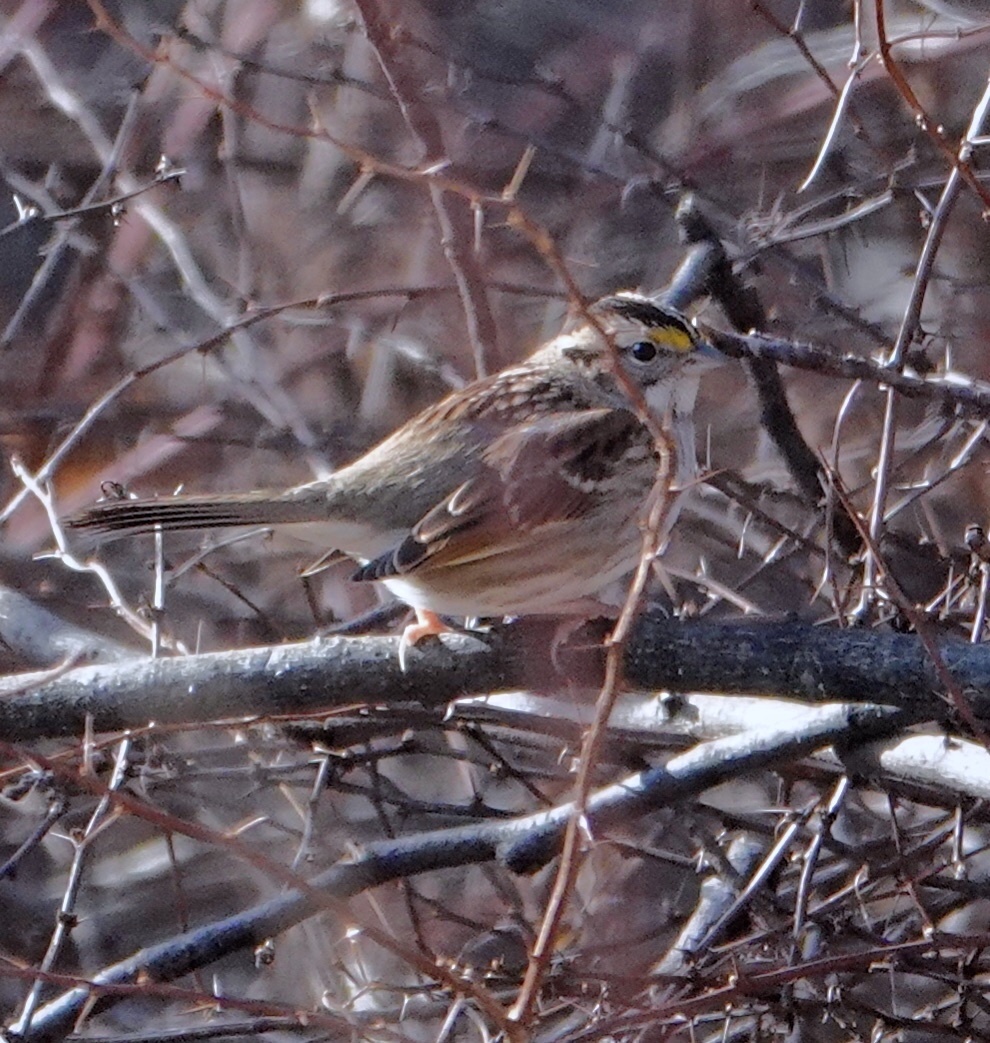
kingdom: Animalia
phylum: Chordata
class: Aves
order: Passeriformes
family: Passerellidae
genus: Zonotrichia
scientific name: Zonotrichia albicollis
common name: White-throated sparrow
